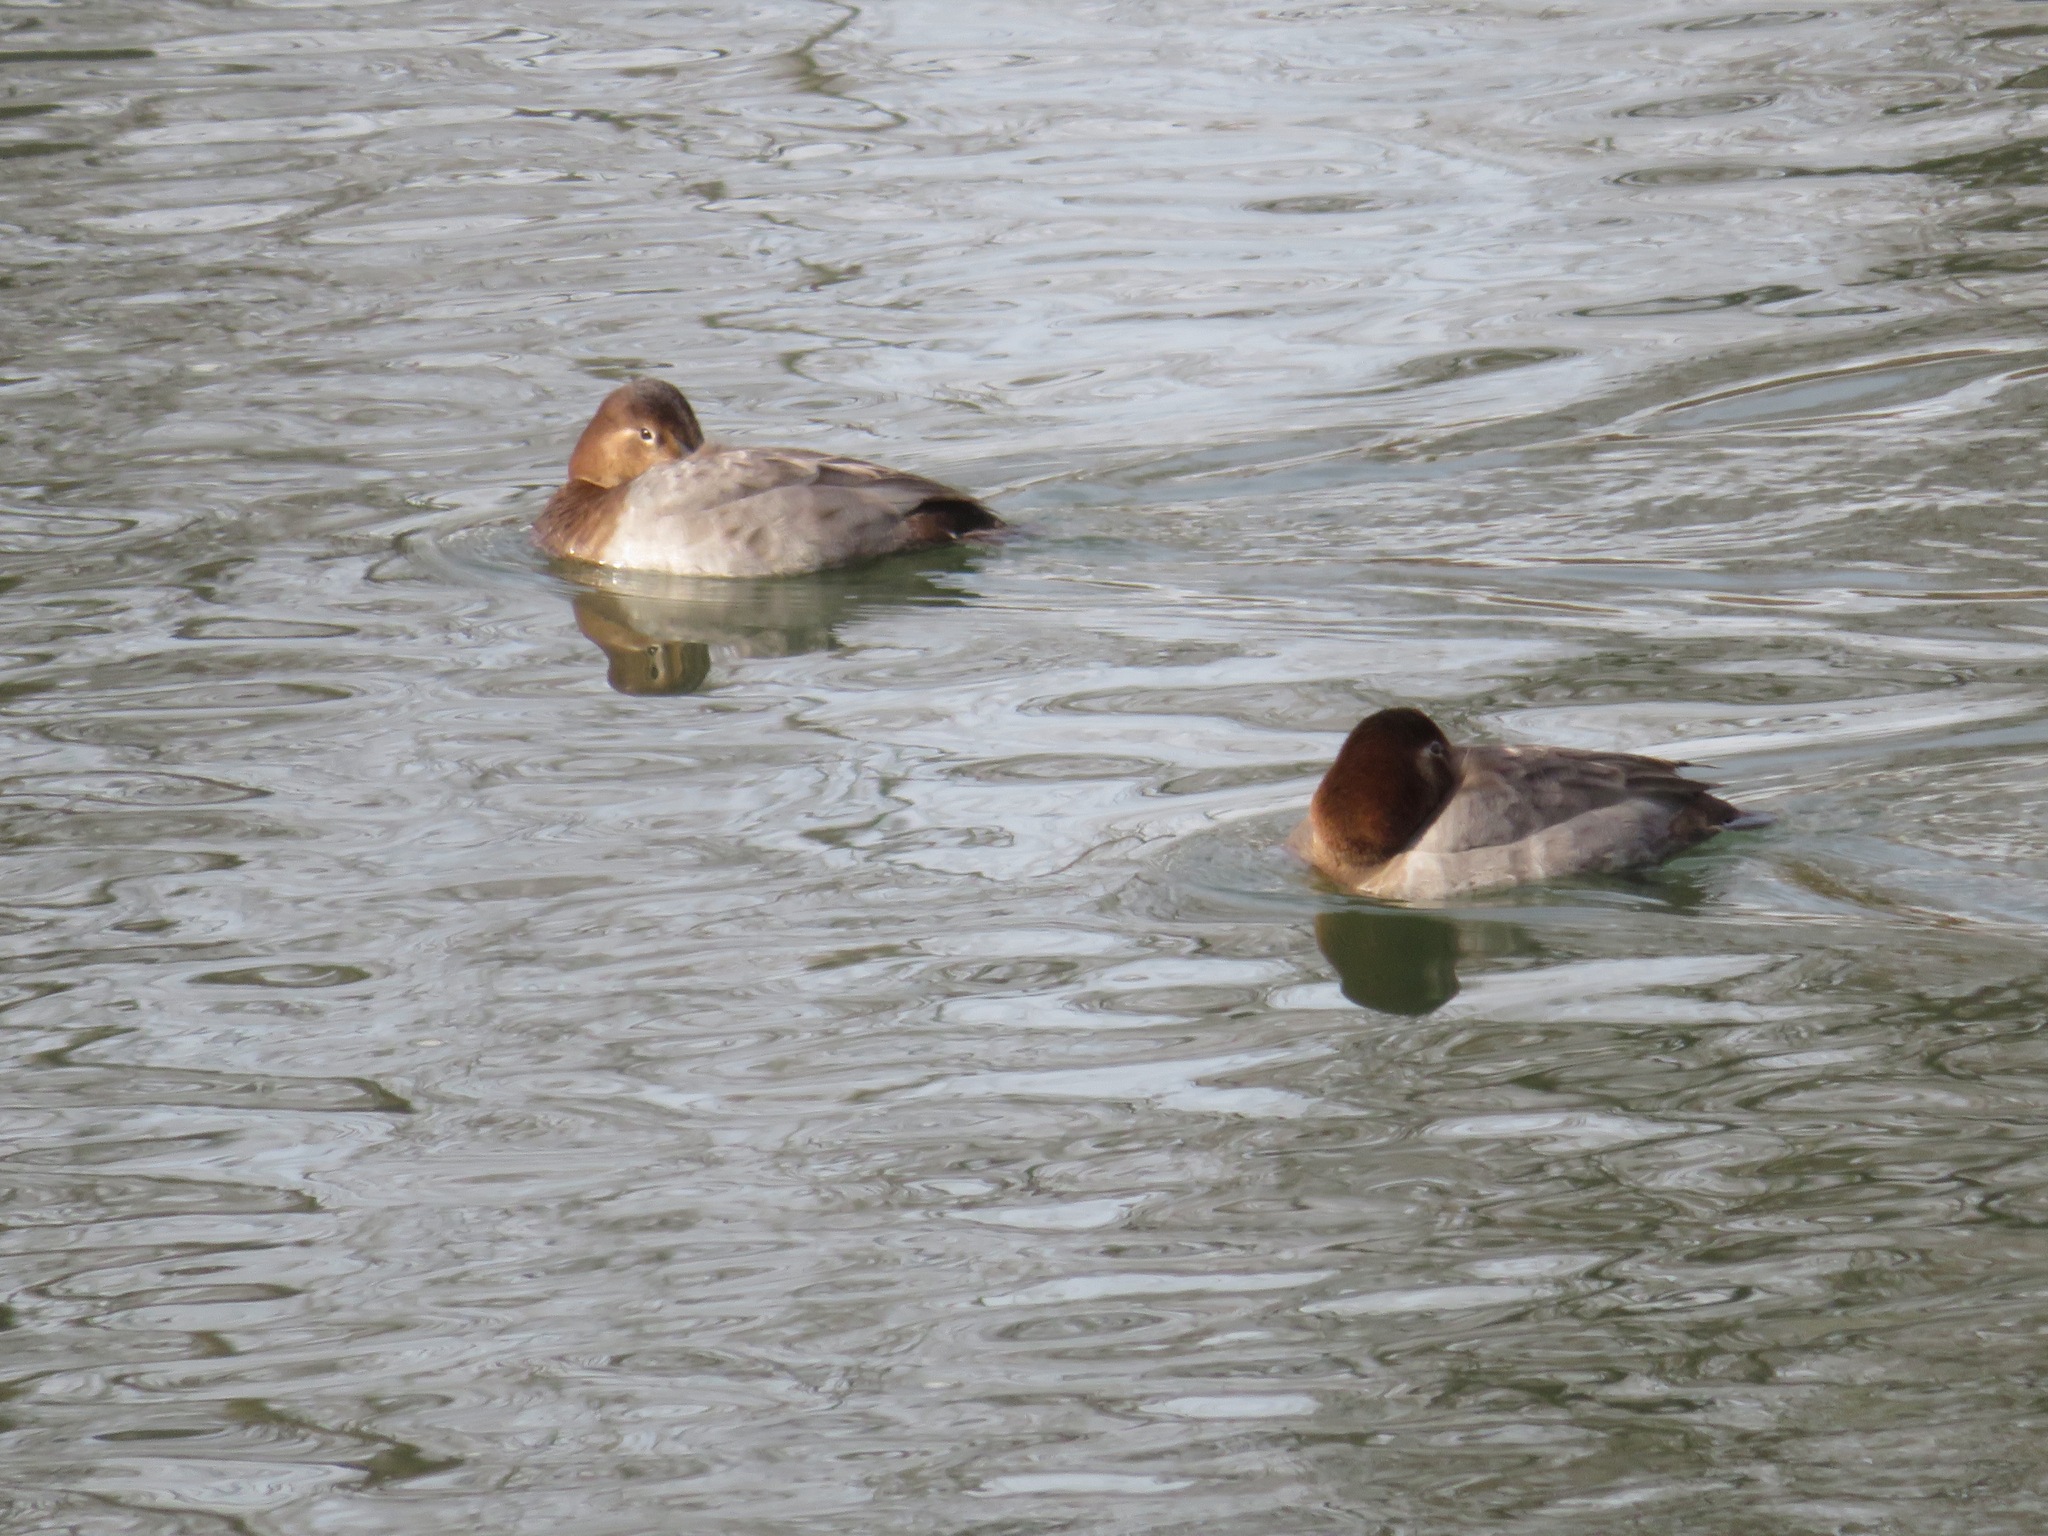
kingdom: Animalia
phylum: Chordata
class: Aves
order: Anseriformes
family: Anatidae
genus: Aythya
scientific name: Aythya ferina
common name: Common pochard
